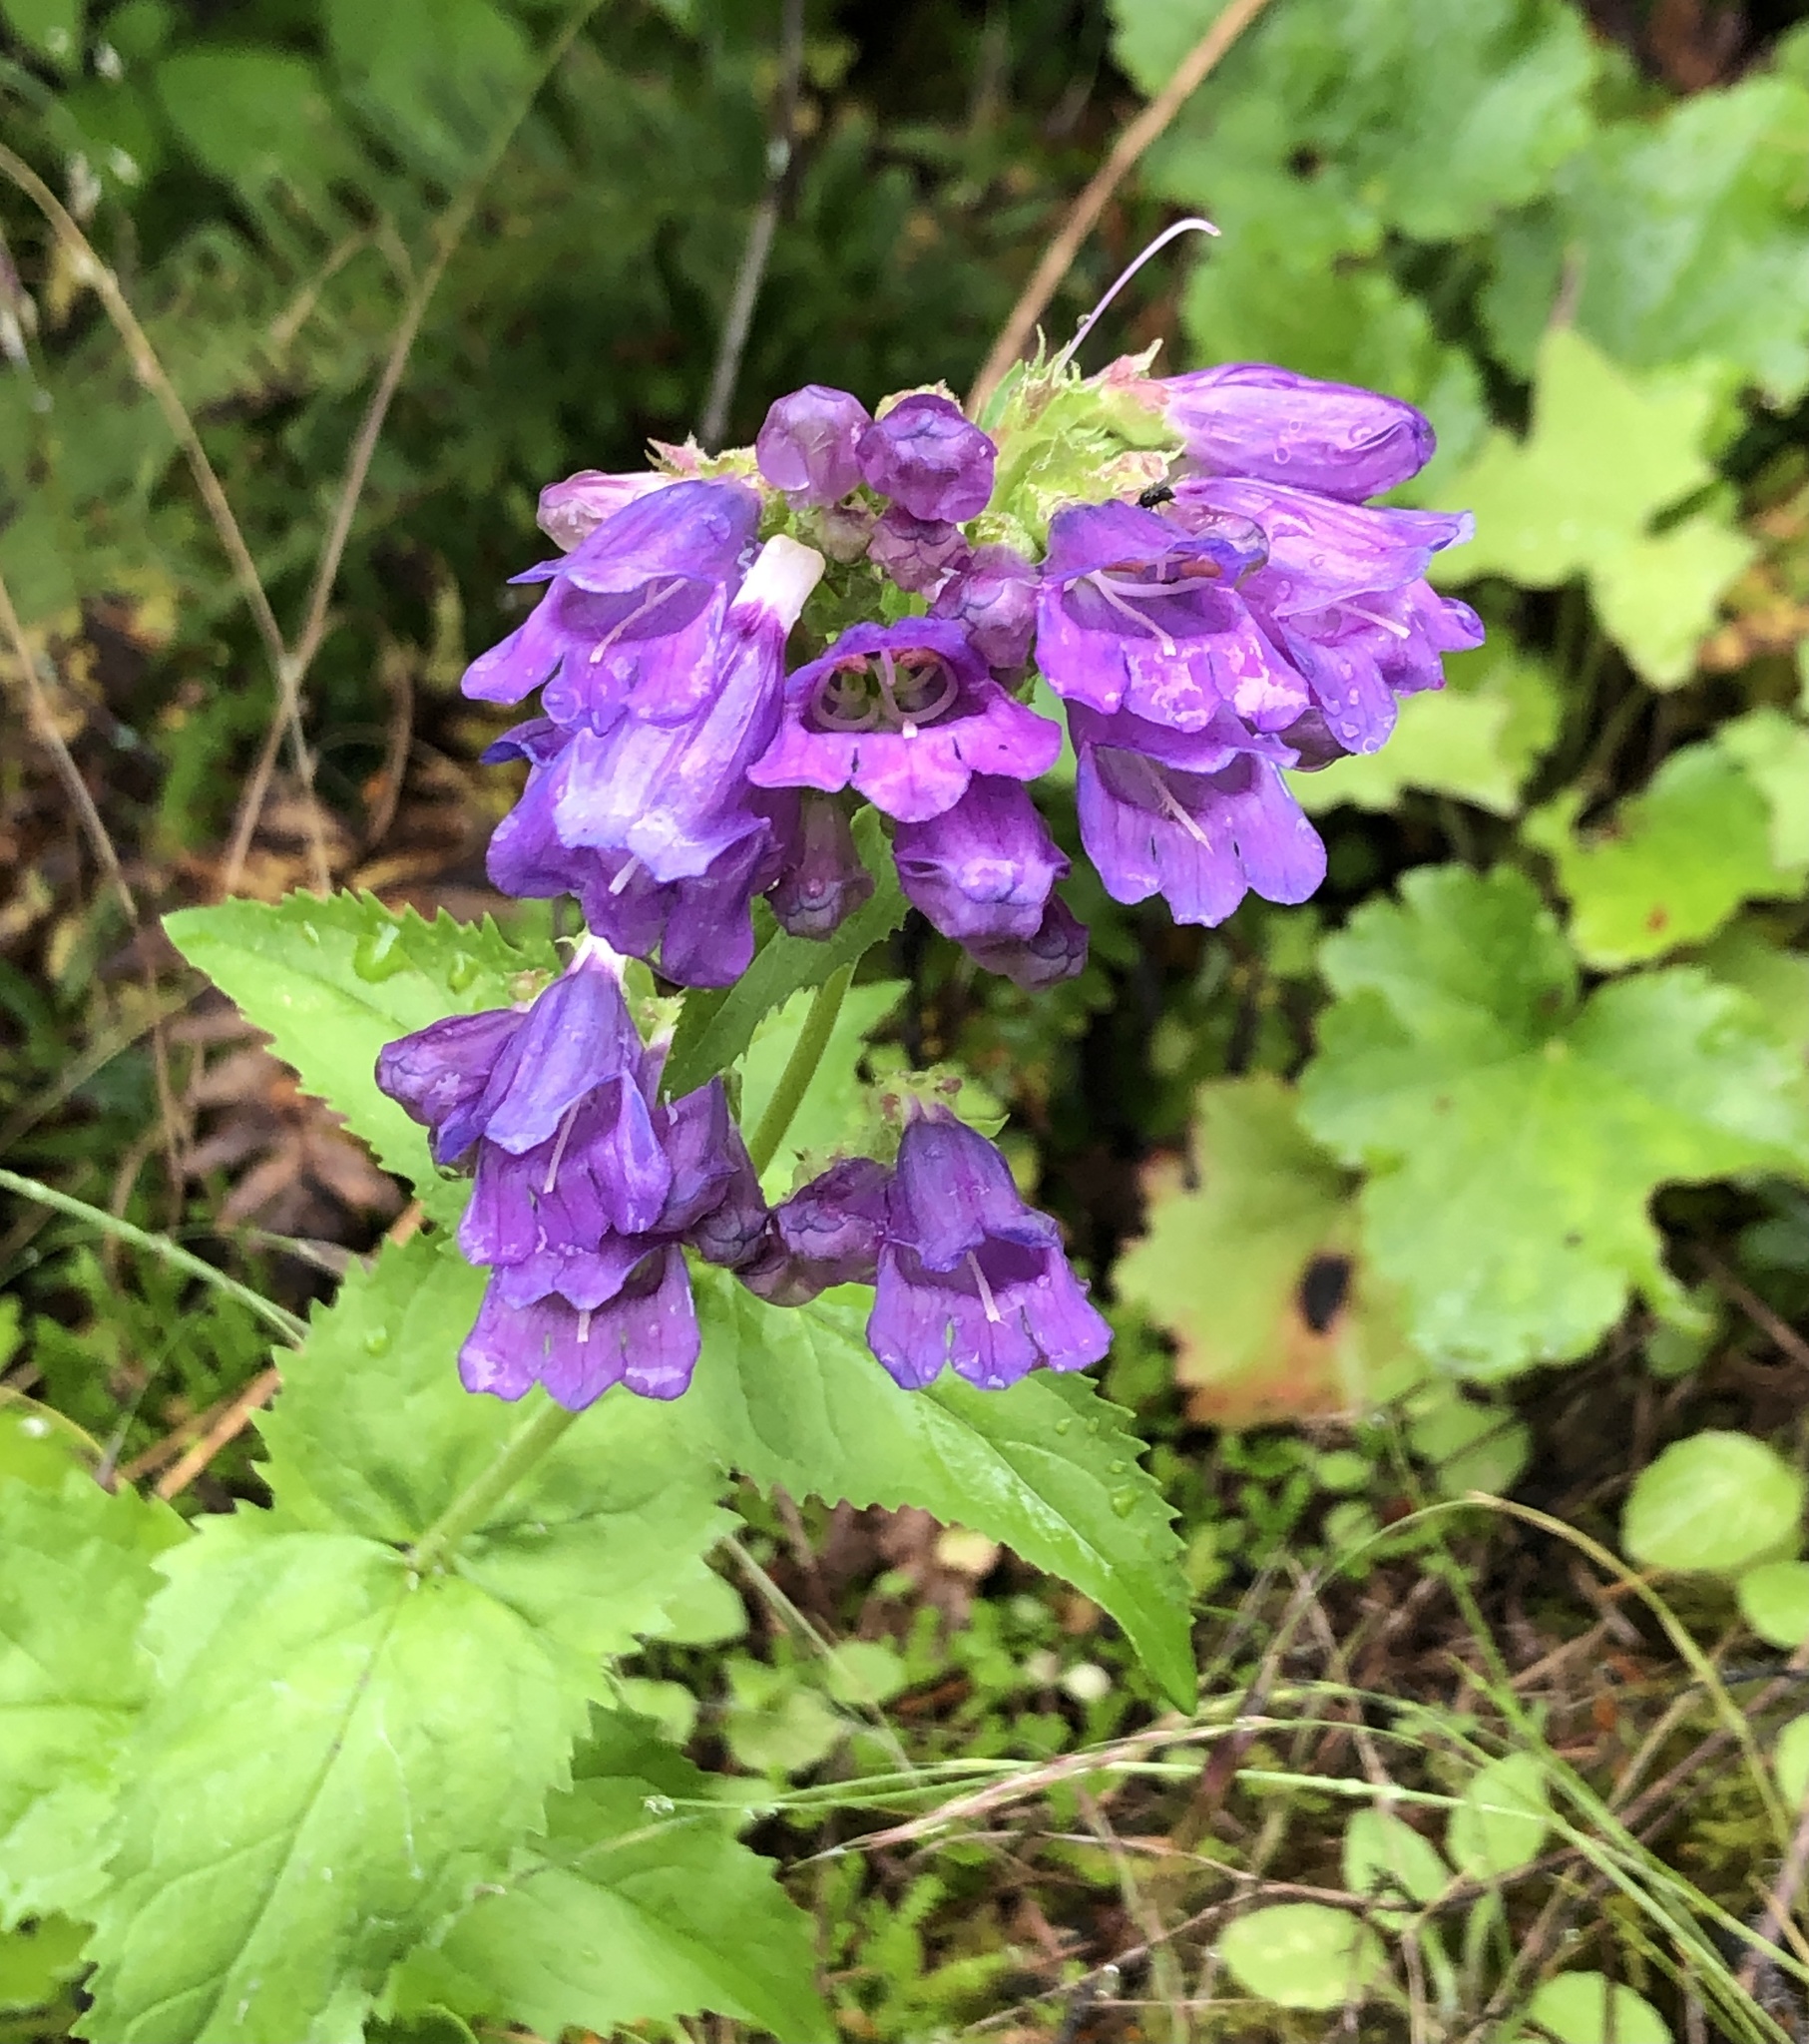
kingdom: Plantae
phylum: Tracheophyta
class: Magnoliopsida
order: Lamiales
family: Plantaginaceae
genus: Penstemon
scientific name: Penstemon serrulatus
